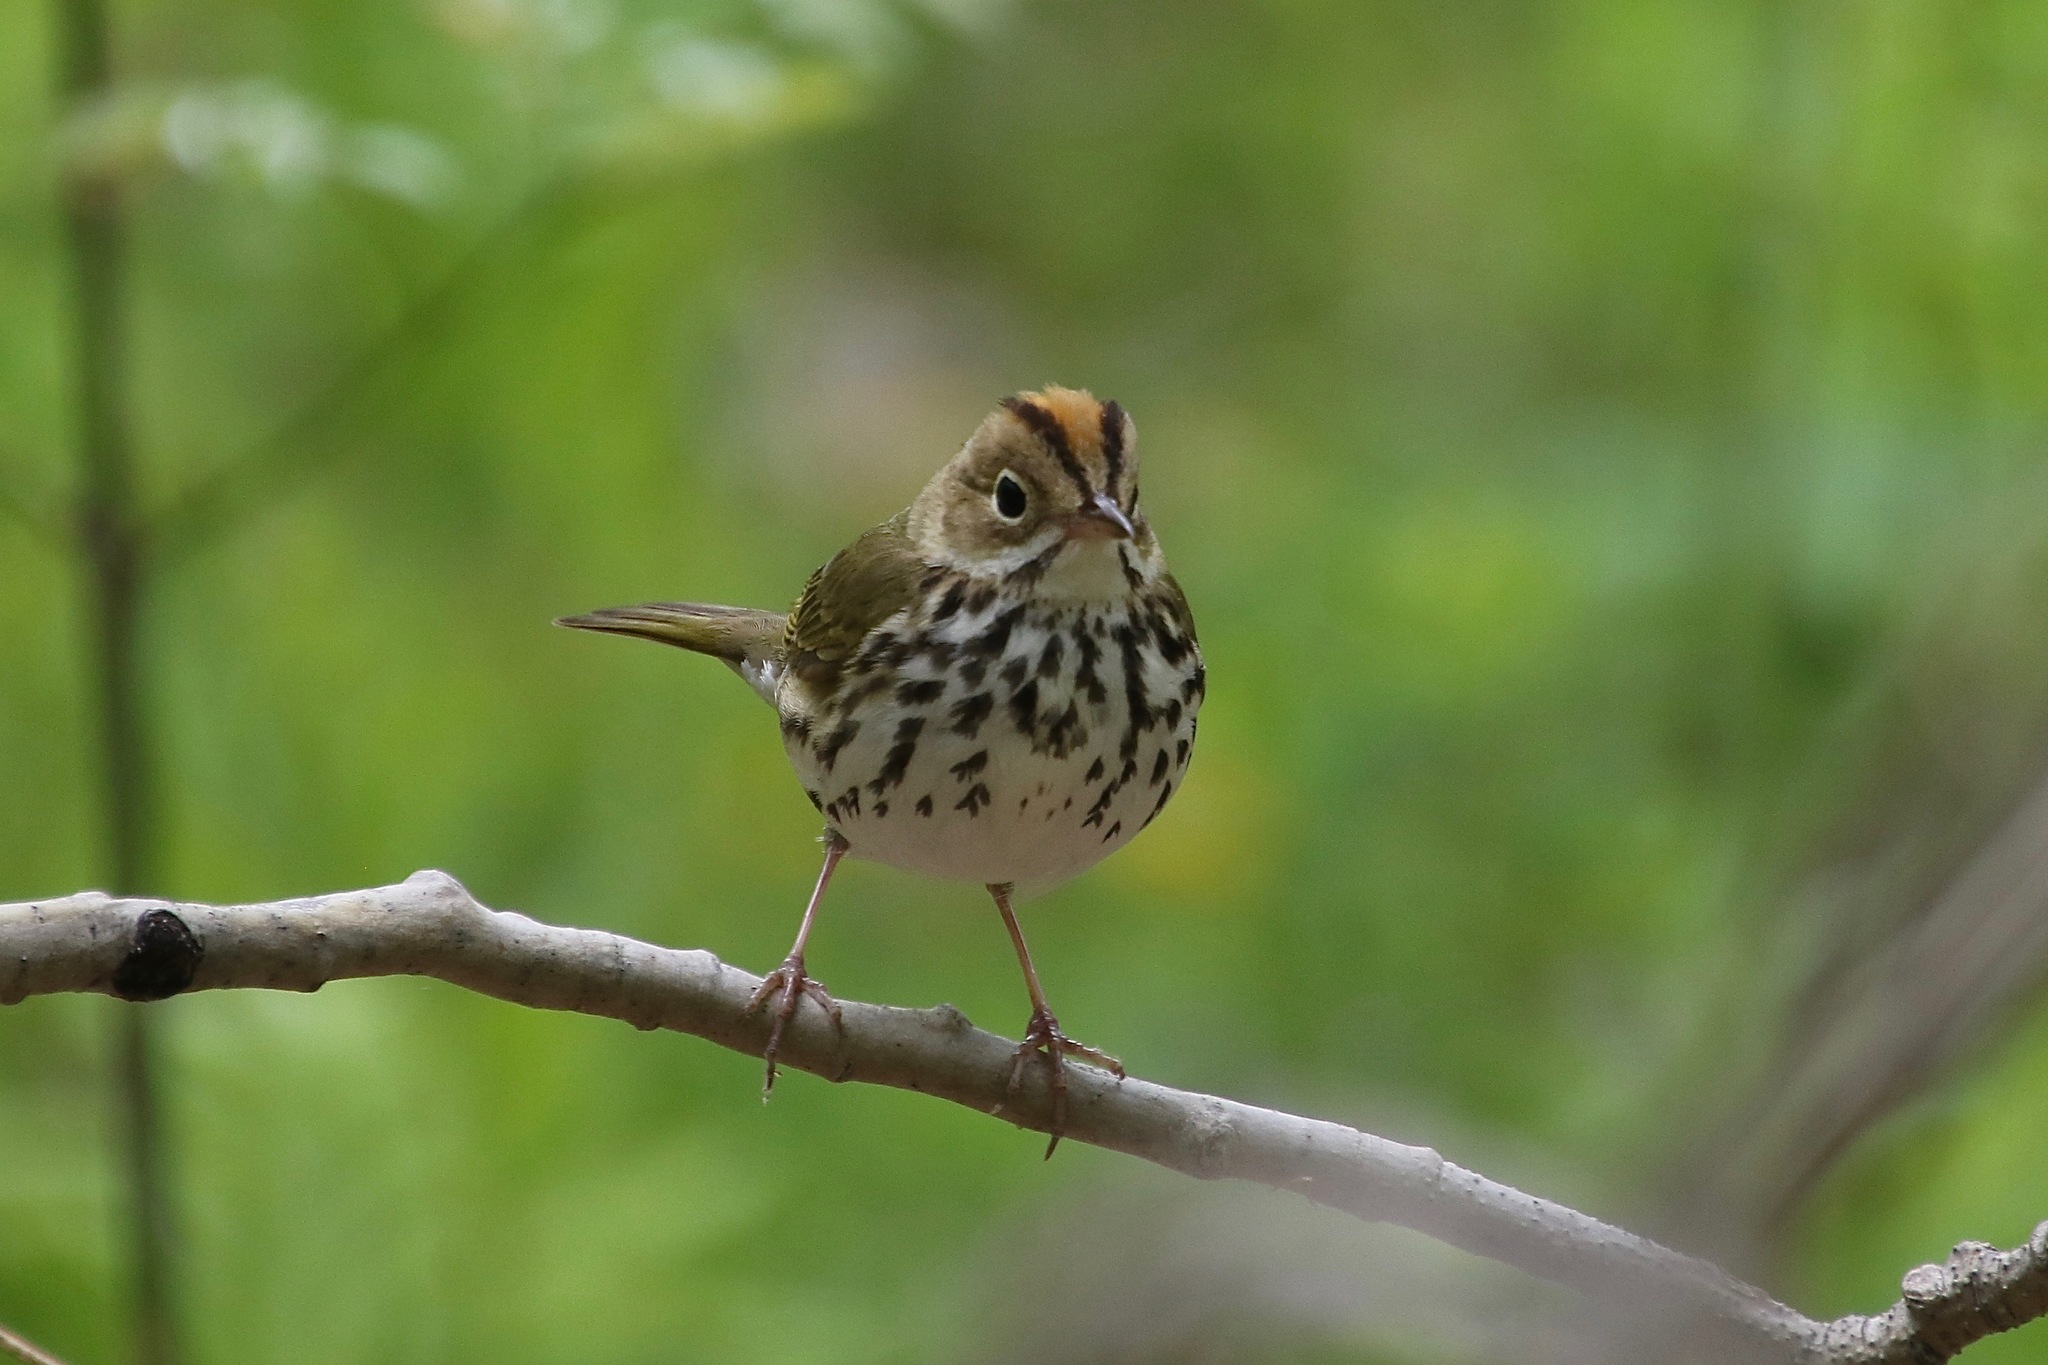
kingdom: Animalia
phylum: Chordata
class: Aves
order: Passeriformes
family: Parulidae
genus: Seiurus
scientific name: Seiurus aurocapilla
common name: Ovenbird
